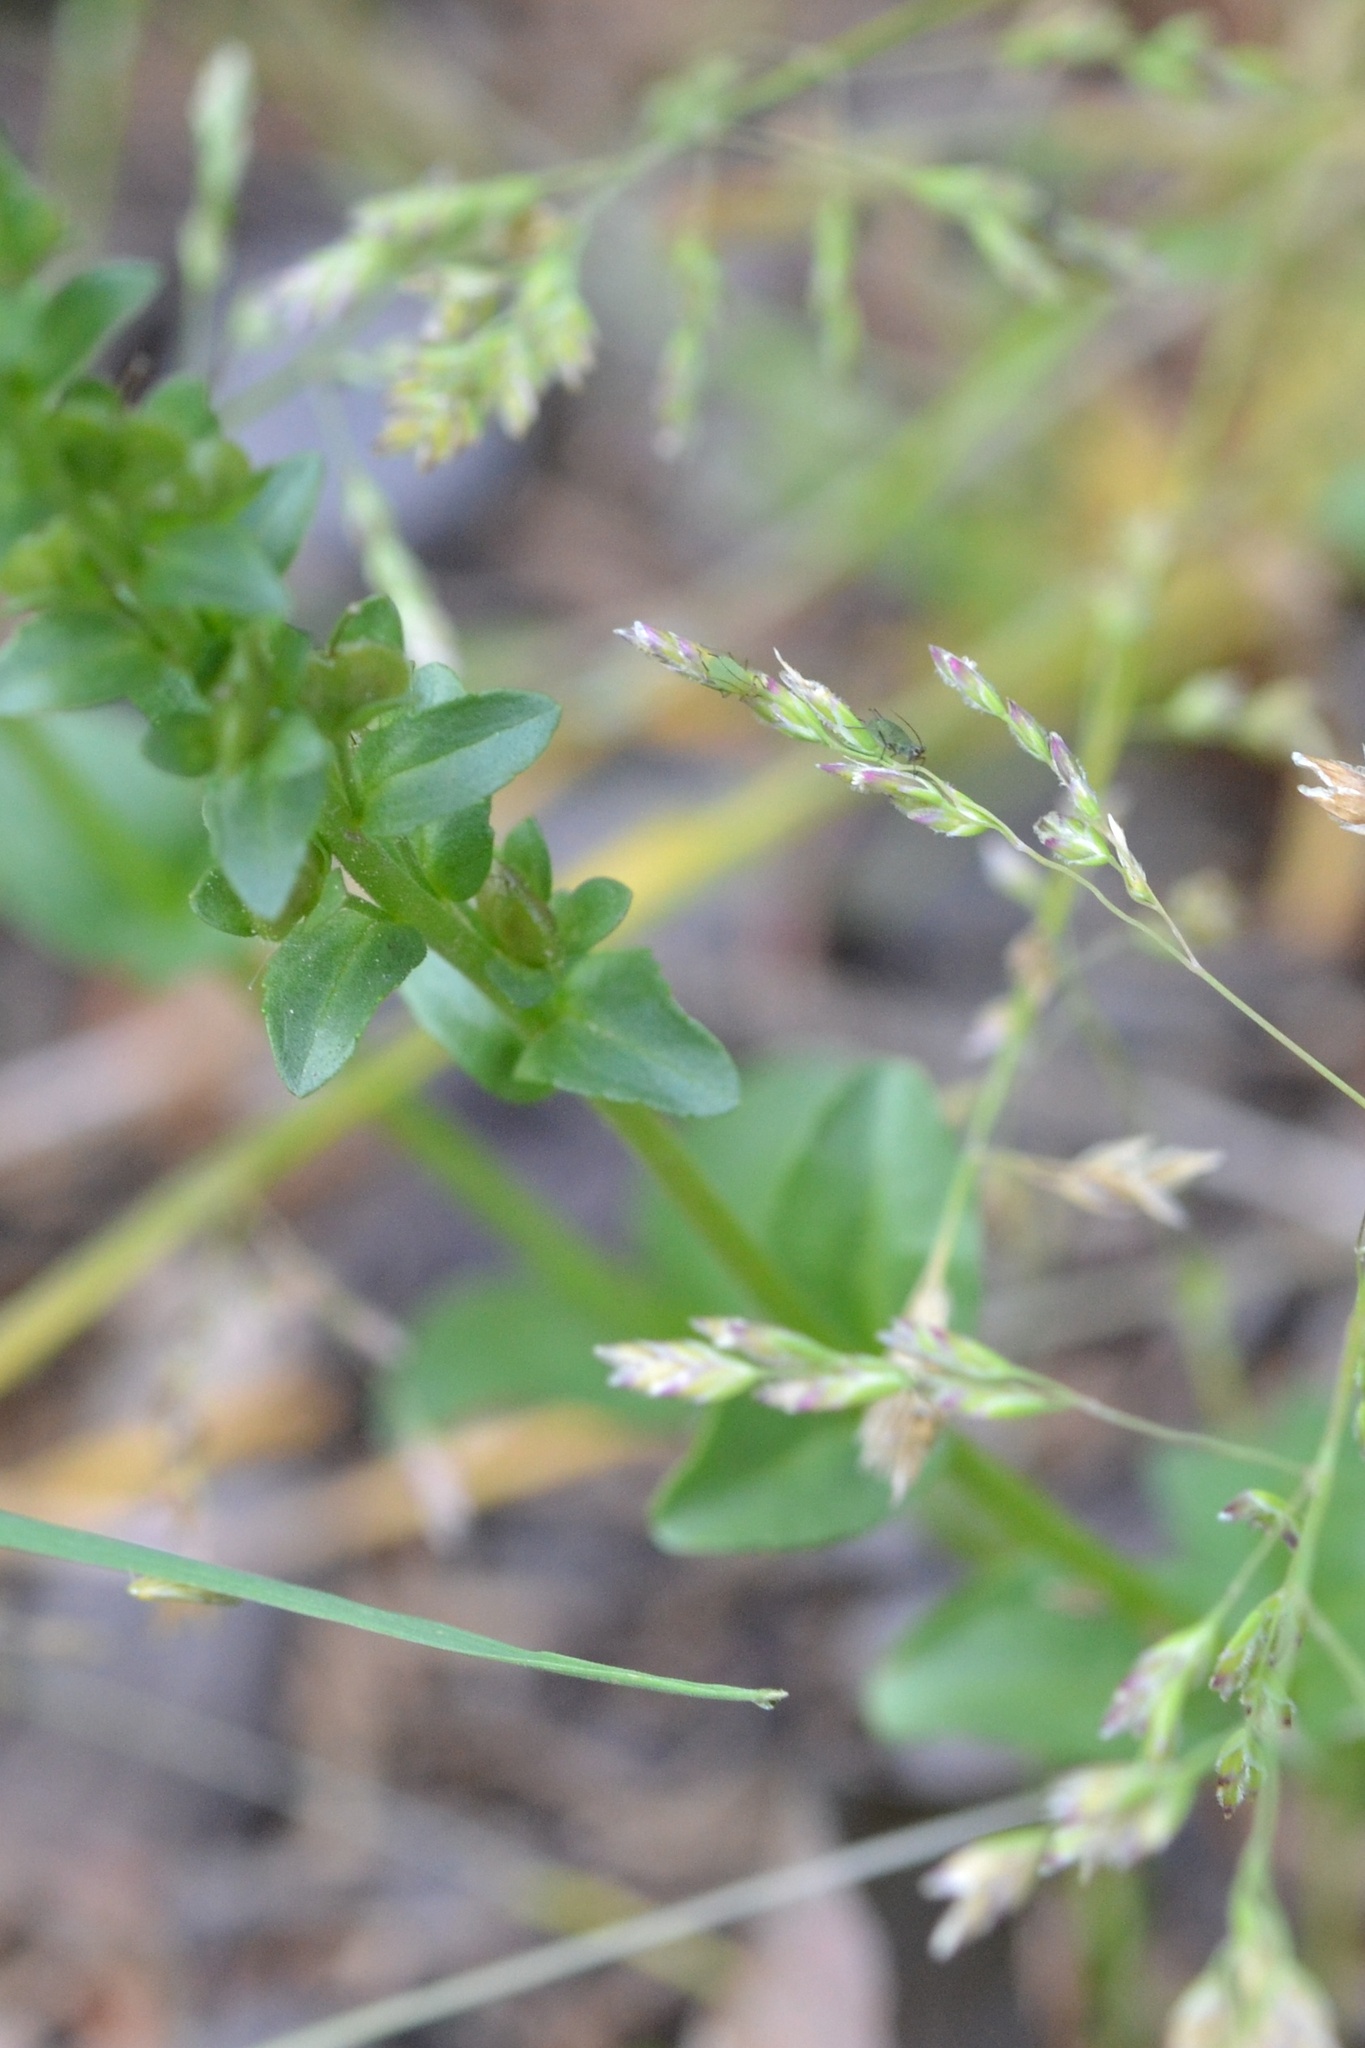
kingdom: Plantae
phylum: Tracheophyta
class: Magnoliopsida
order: Lamiales
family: Plantaginaceae
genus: Veronica
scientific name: Veronica serpyllifolia
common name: Thyme-leaved speedwell
